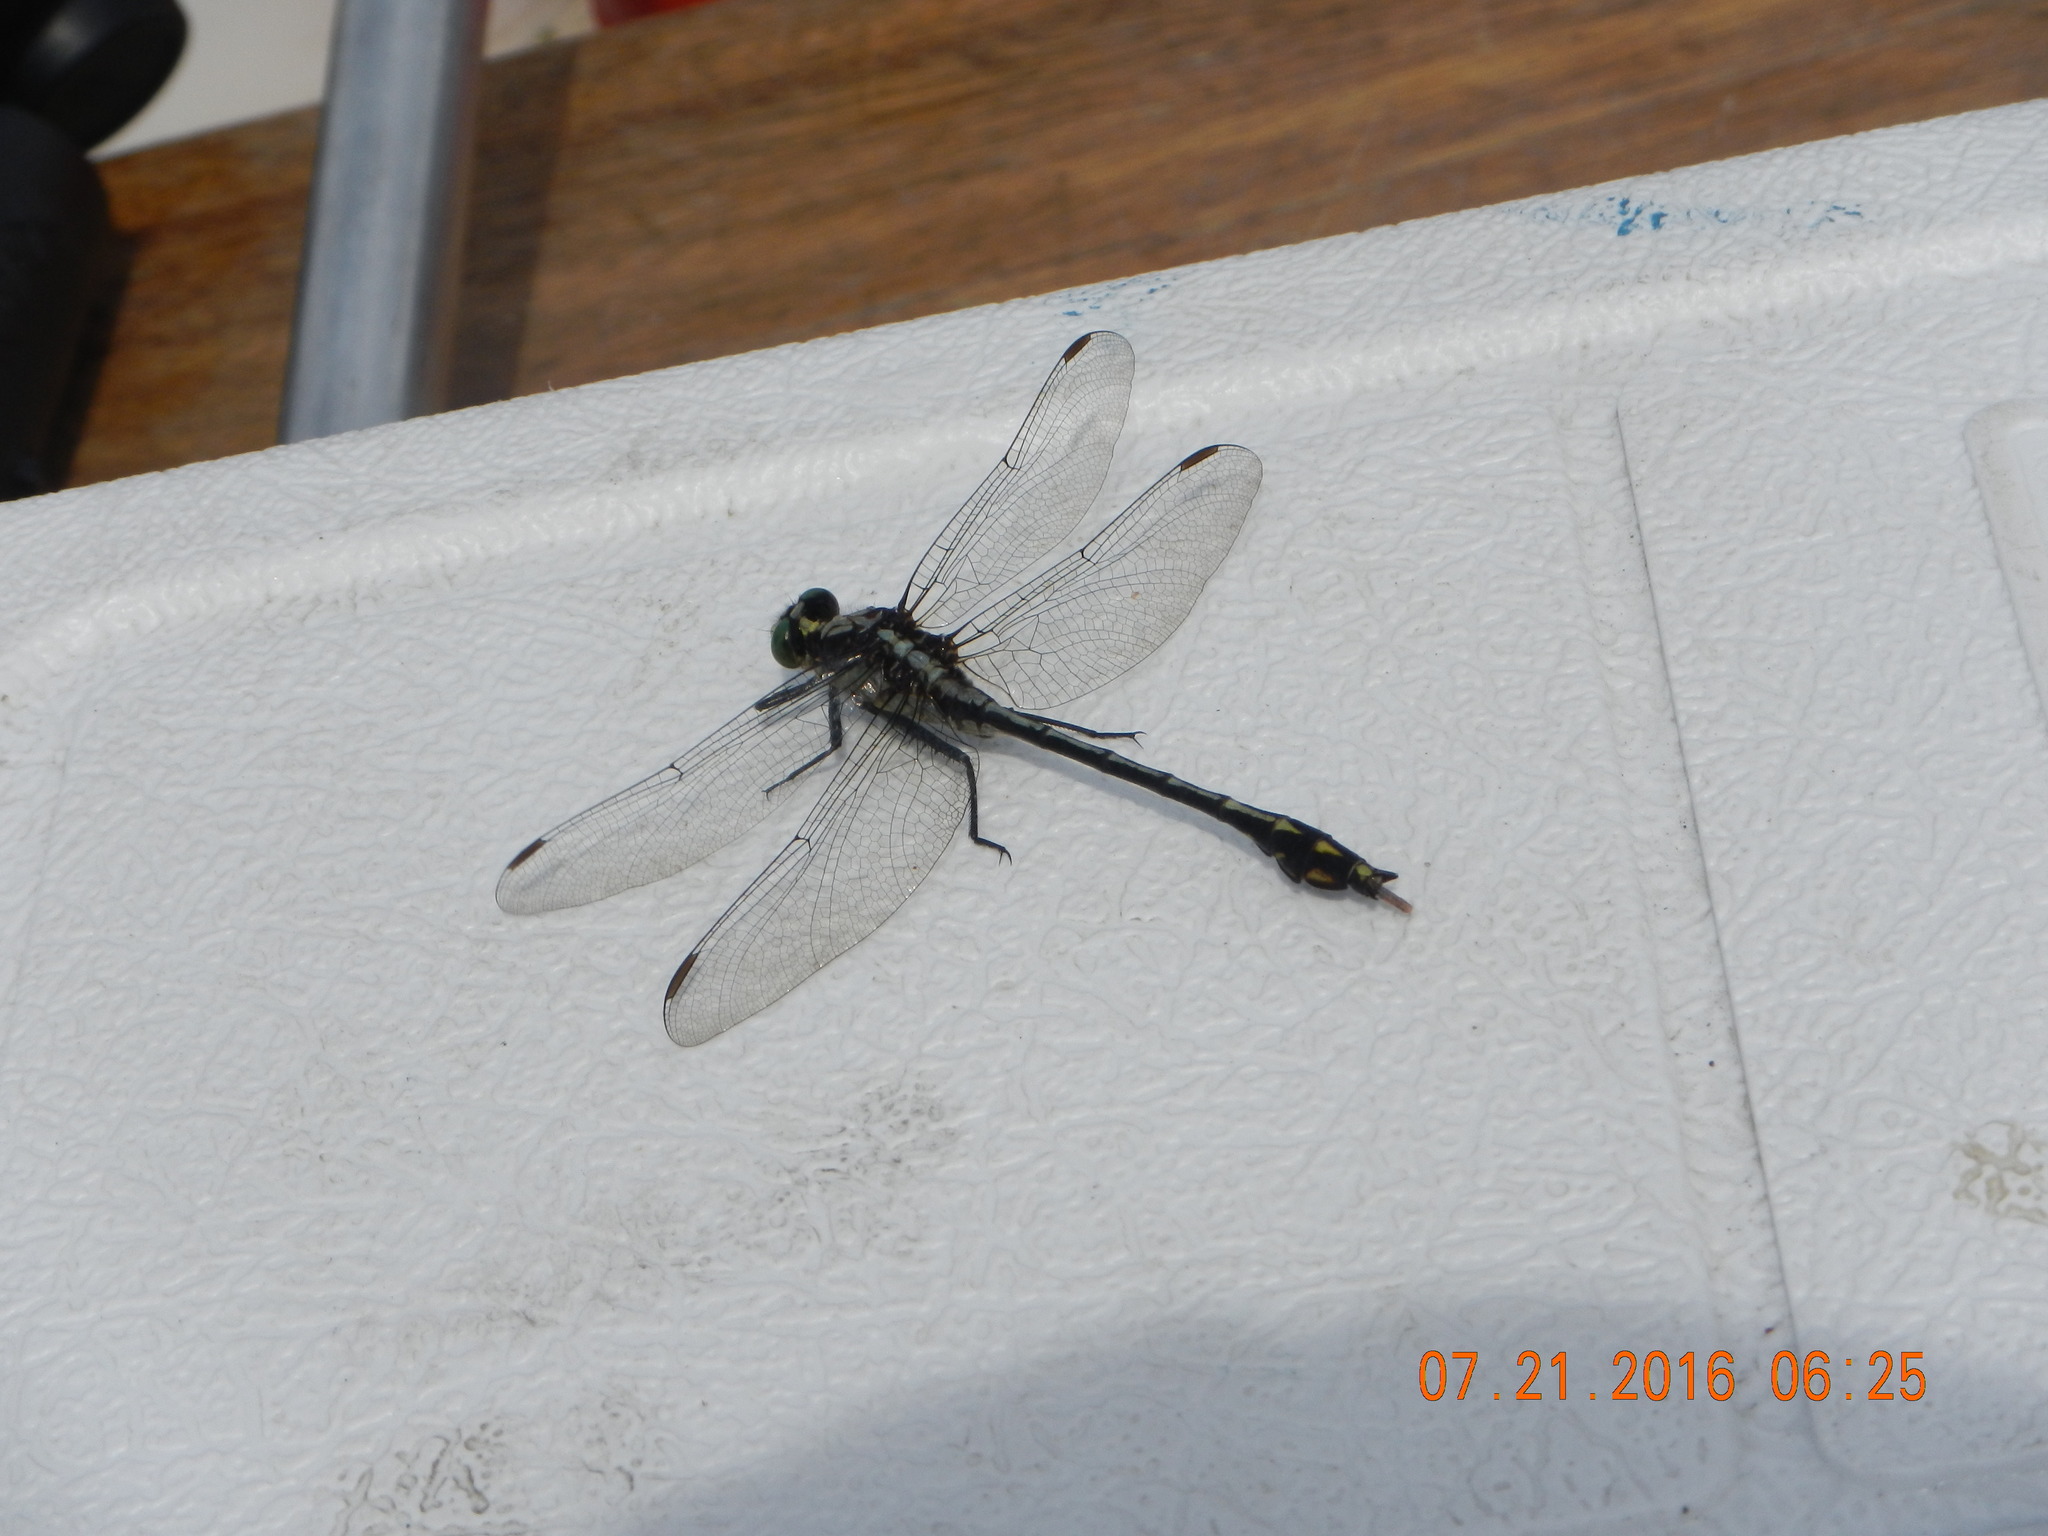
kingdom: Animalia
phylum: Arthropoda
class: Insecta
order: Odonata
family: Gomphidae
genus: Dromogomphus
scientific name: Dromogomphus spinosus
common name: Black-shouldered spinyleg
